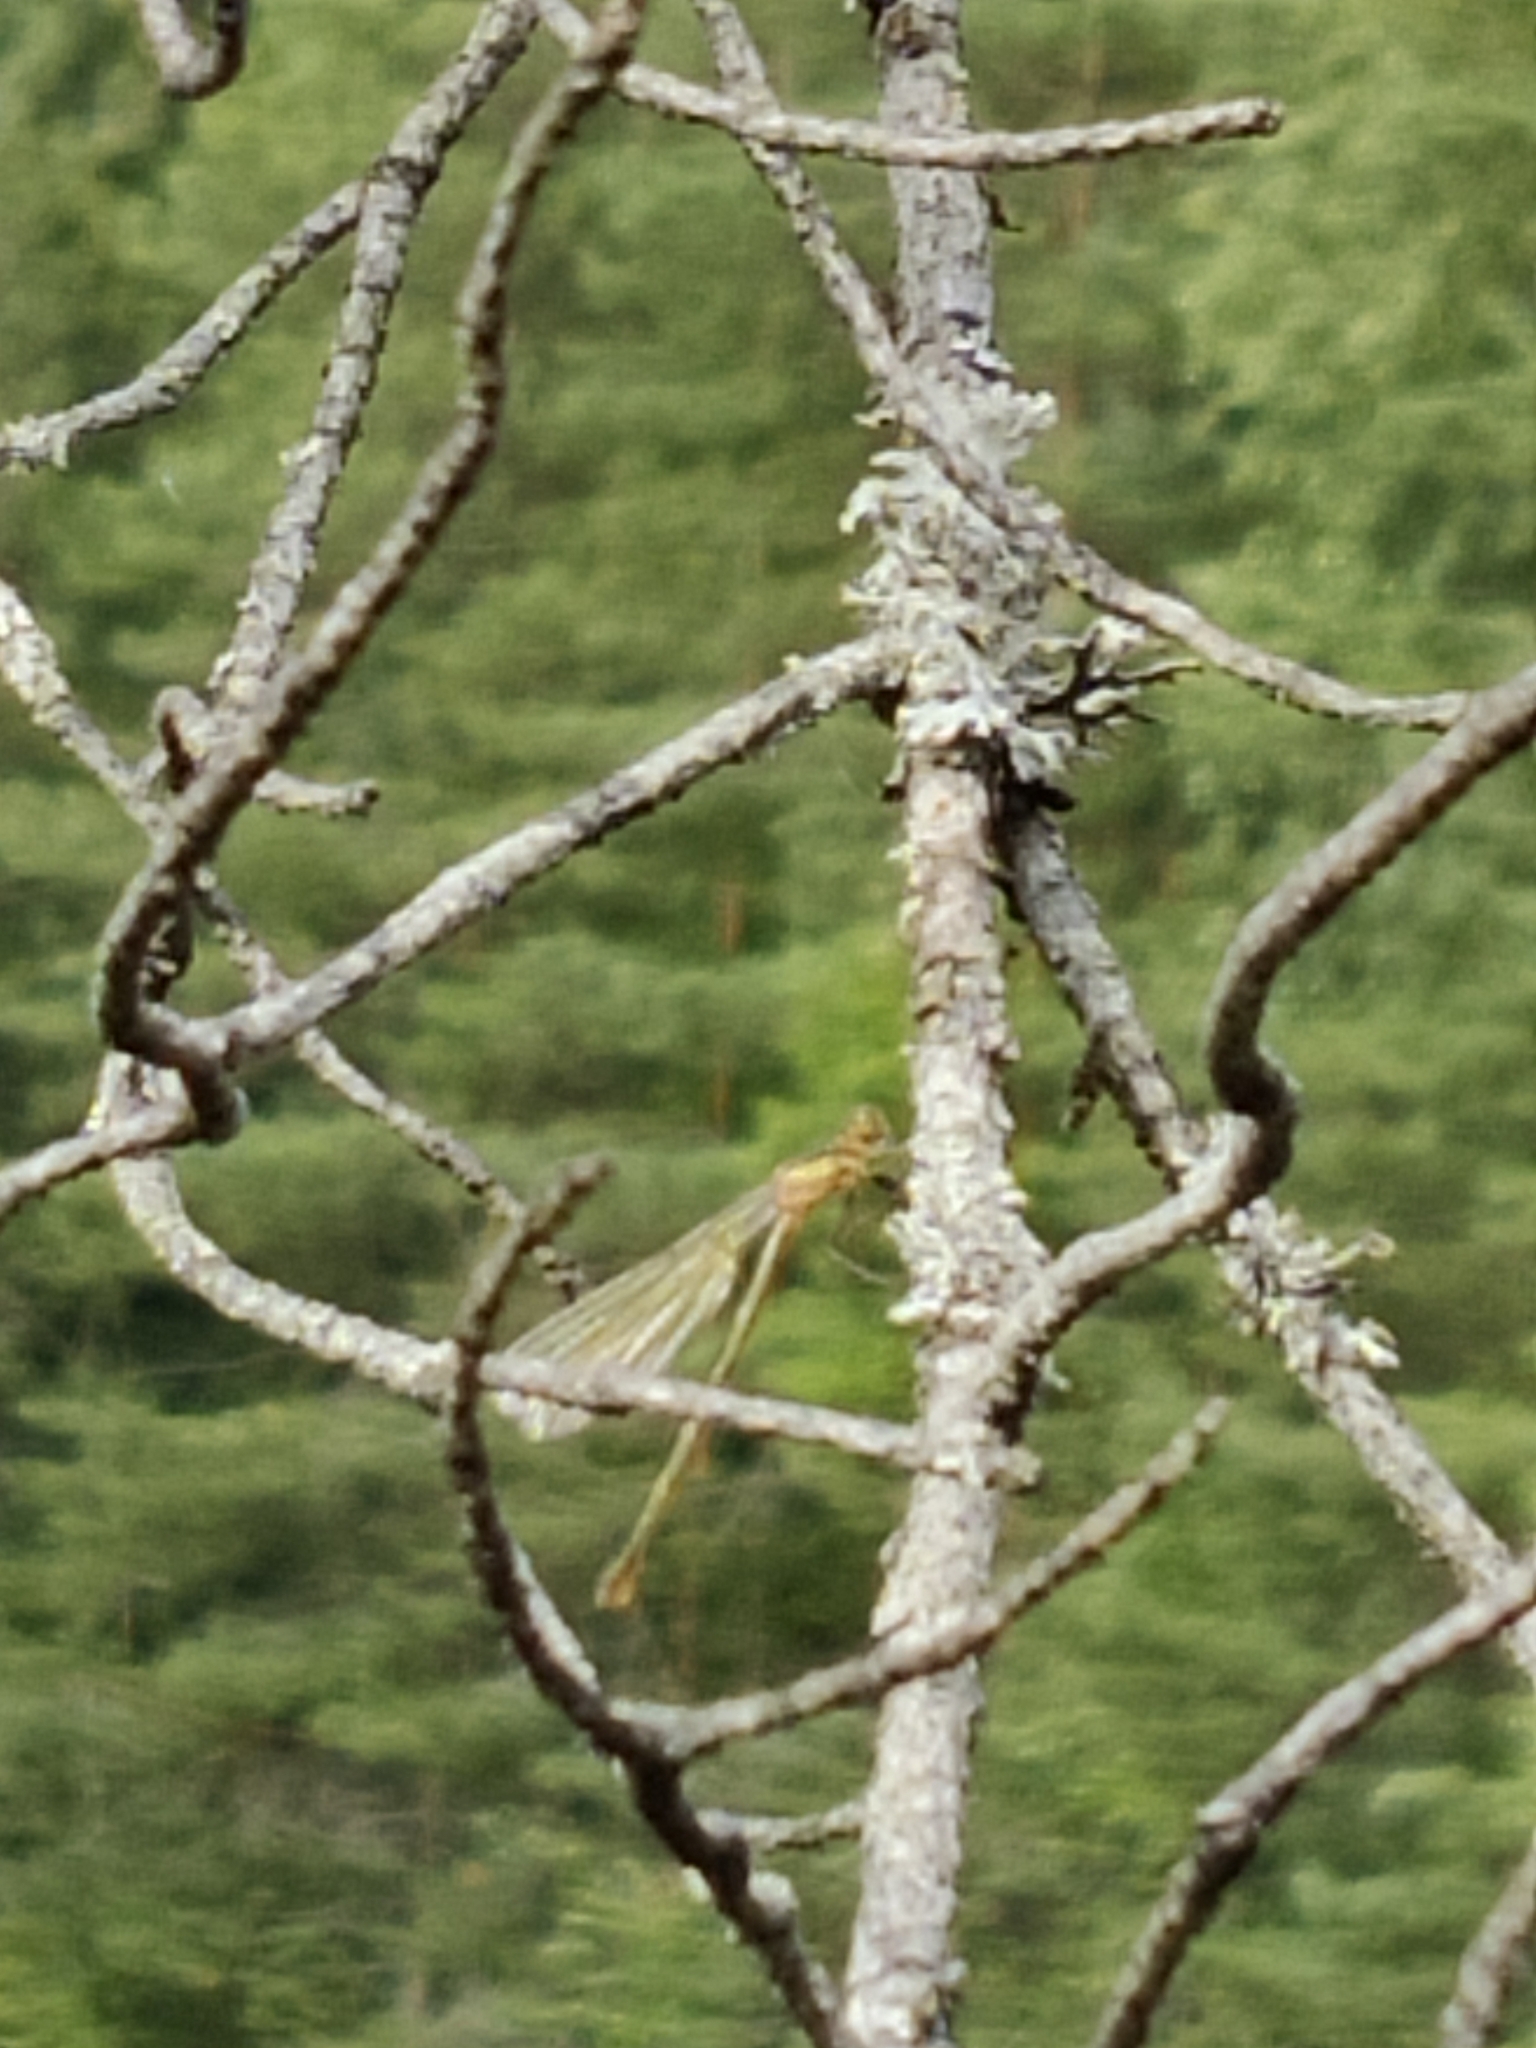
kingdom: Animalia
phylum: Arthropoda
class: Insecta
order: Odonata
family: Lestidae
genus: Lestes
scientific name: Lestes sponsa
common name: Common spreadwing
